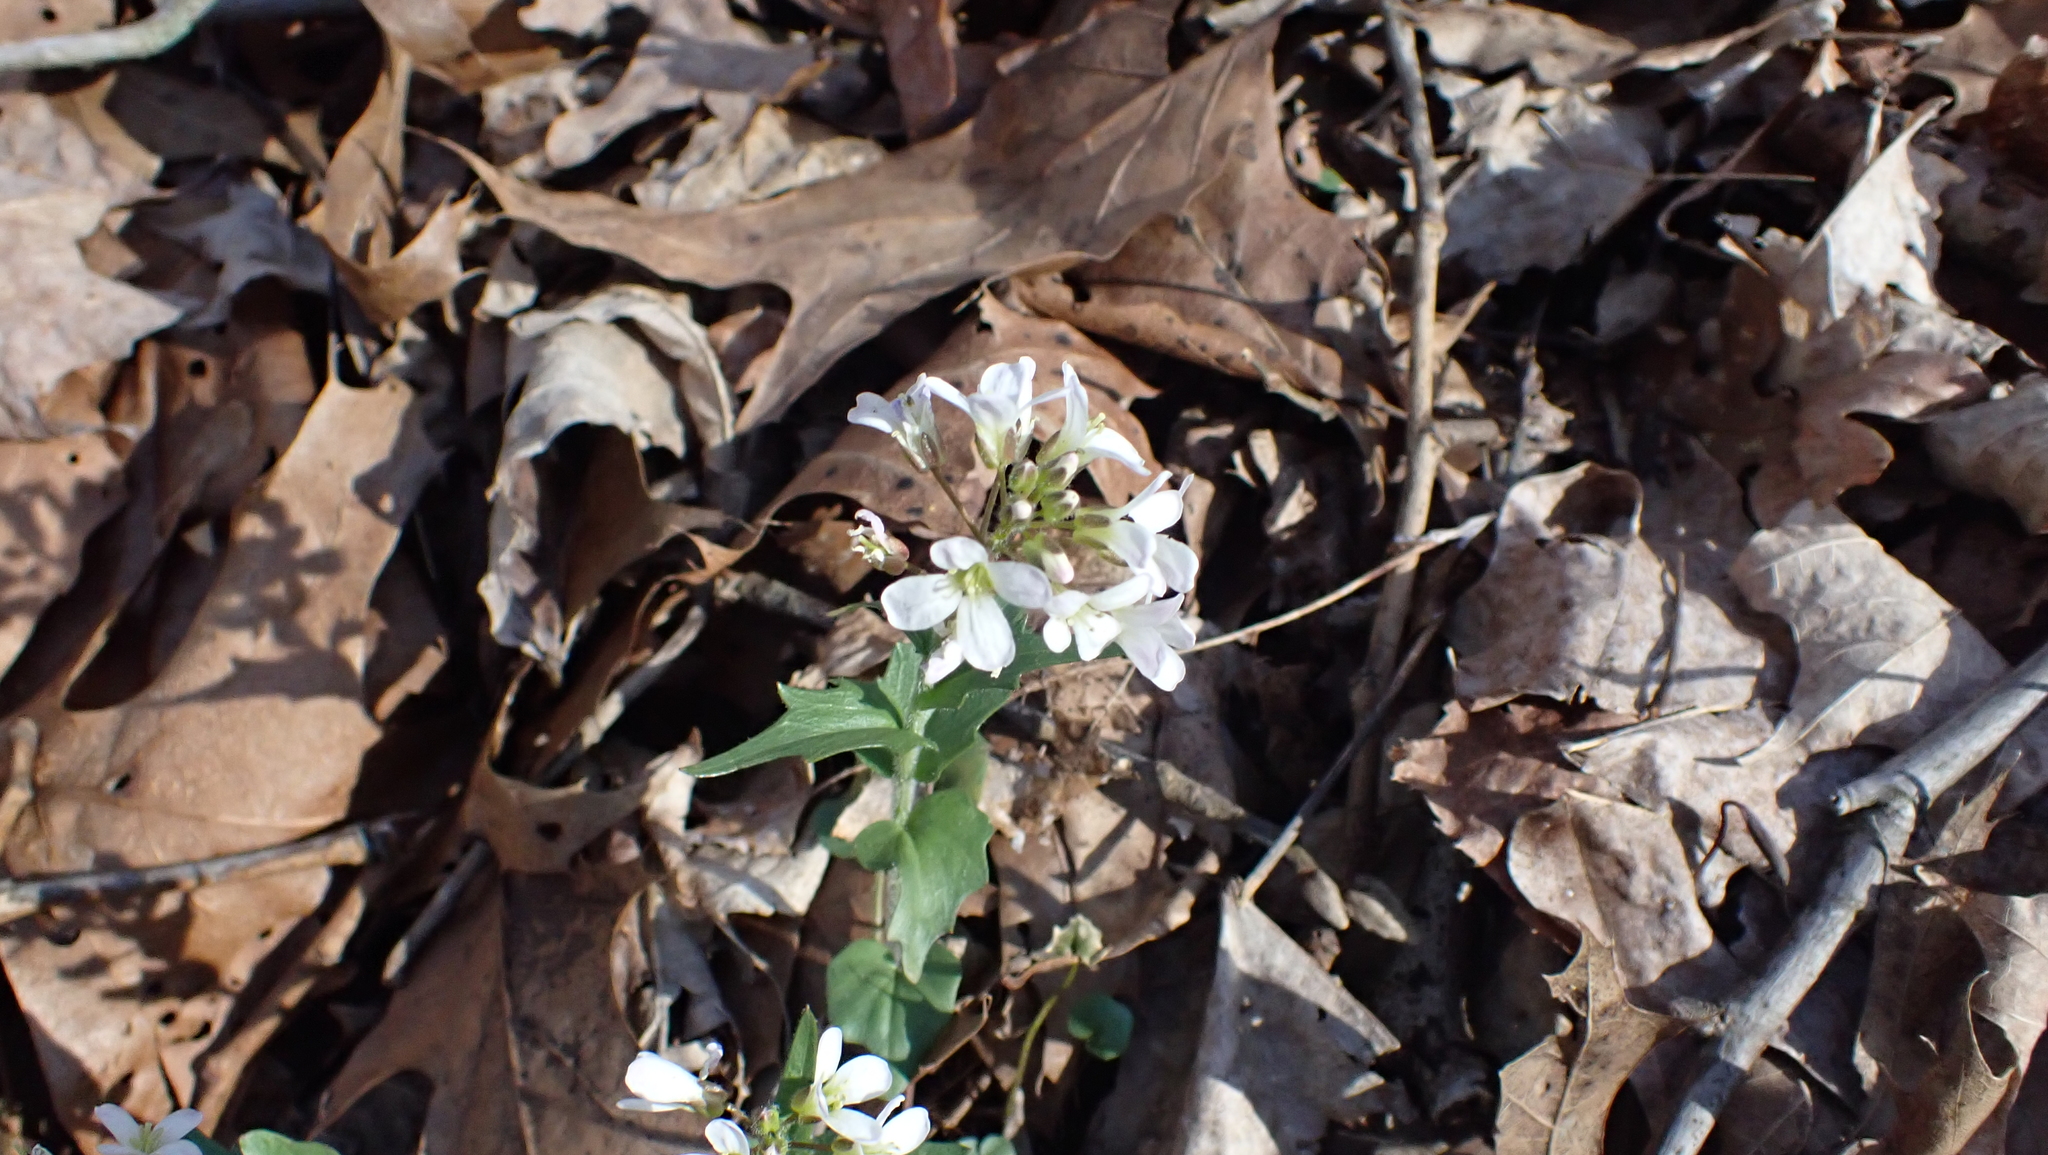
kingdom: Plantae
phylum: Tracheophyta
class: Magnoliopsida
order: Brassicales
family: Brassicaceae
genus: Cardamine
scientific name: Cardamine douglassii
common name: Purple cress
